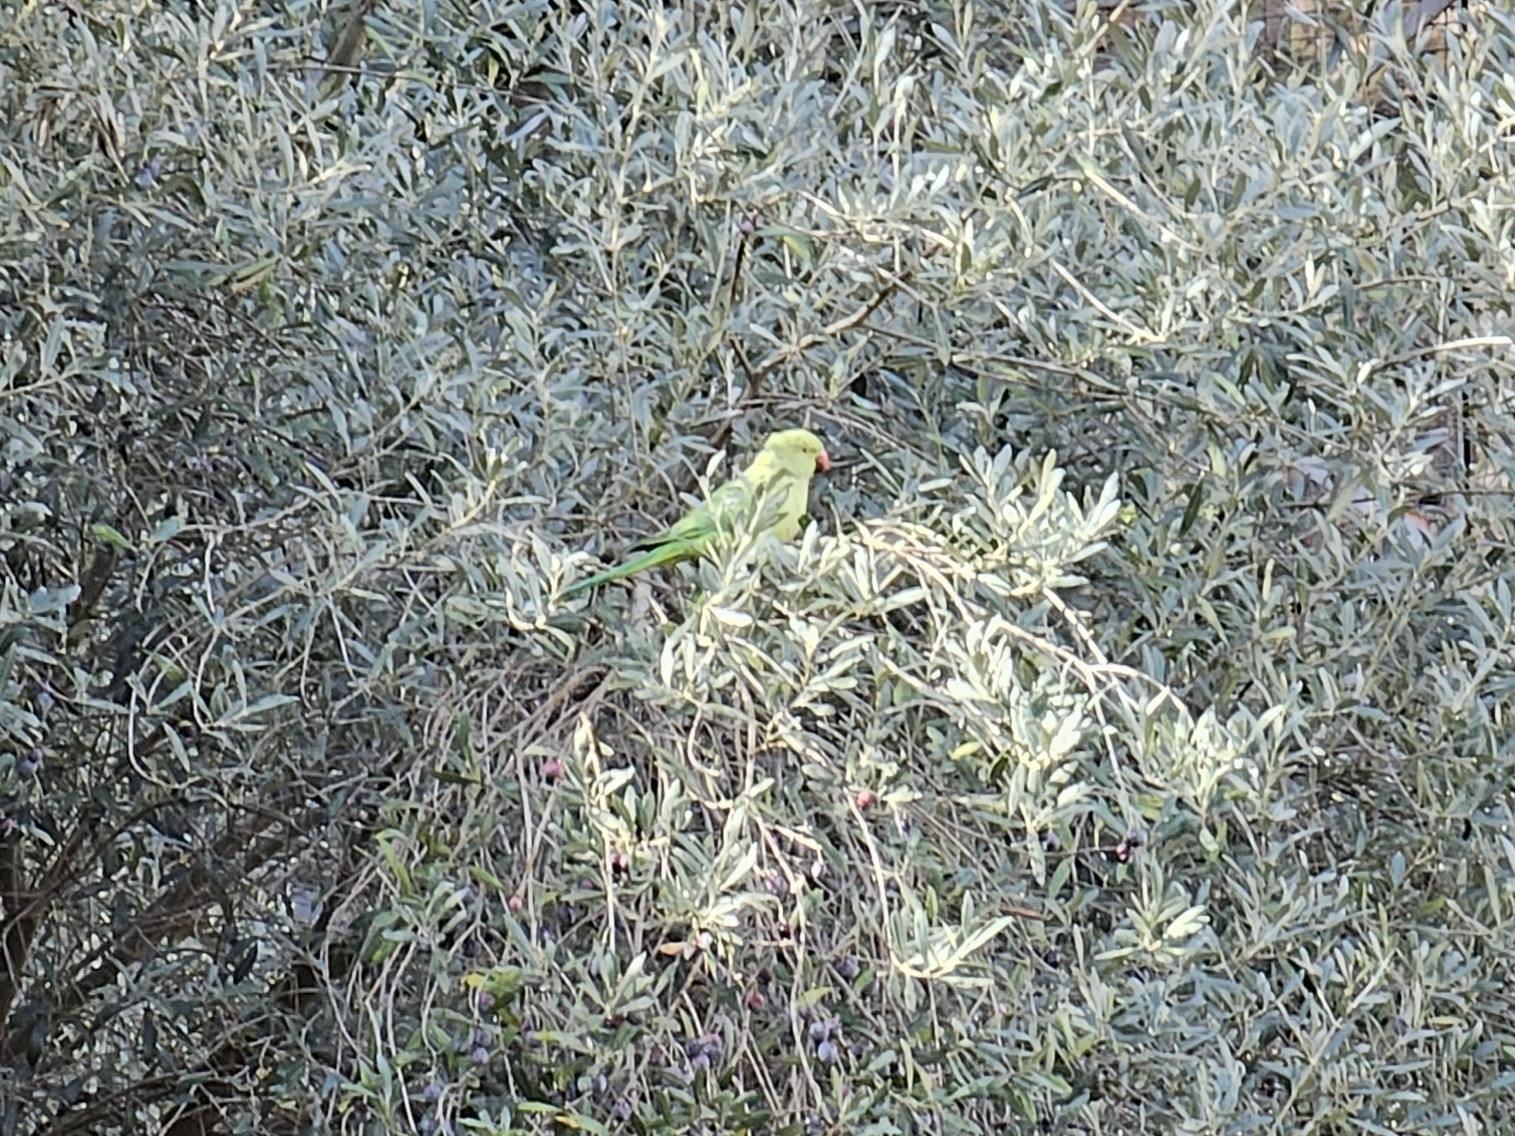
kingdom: Animalia
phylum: Chordata
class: Aves
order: Psittaciformes
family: Psittacidae
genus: Psittacula
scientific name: Psittacula krameri
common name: Rose-ringed parakeet
